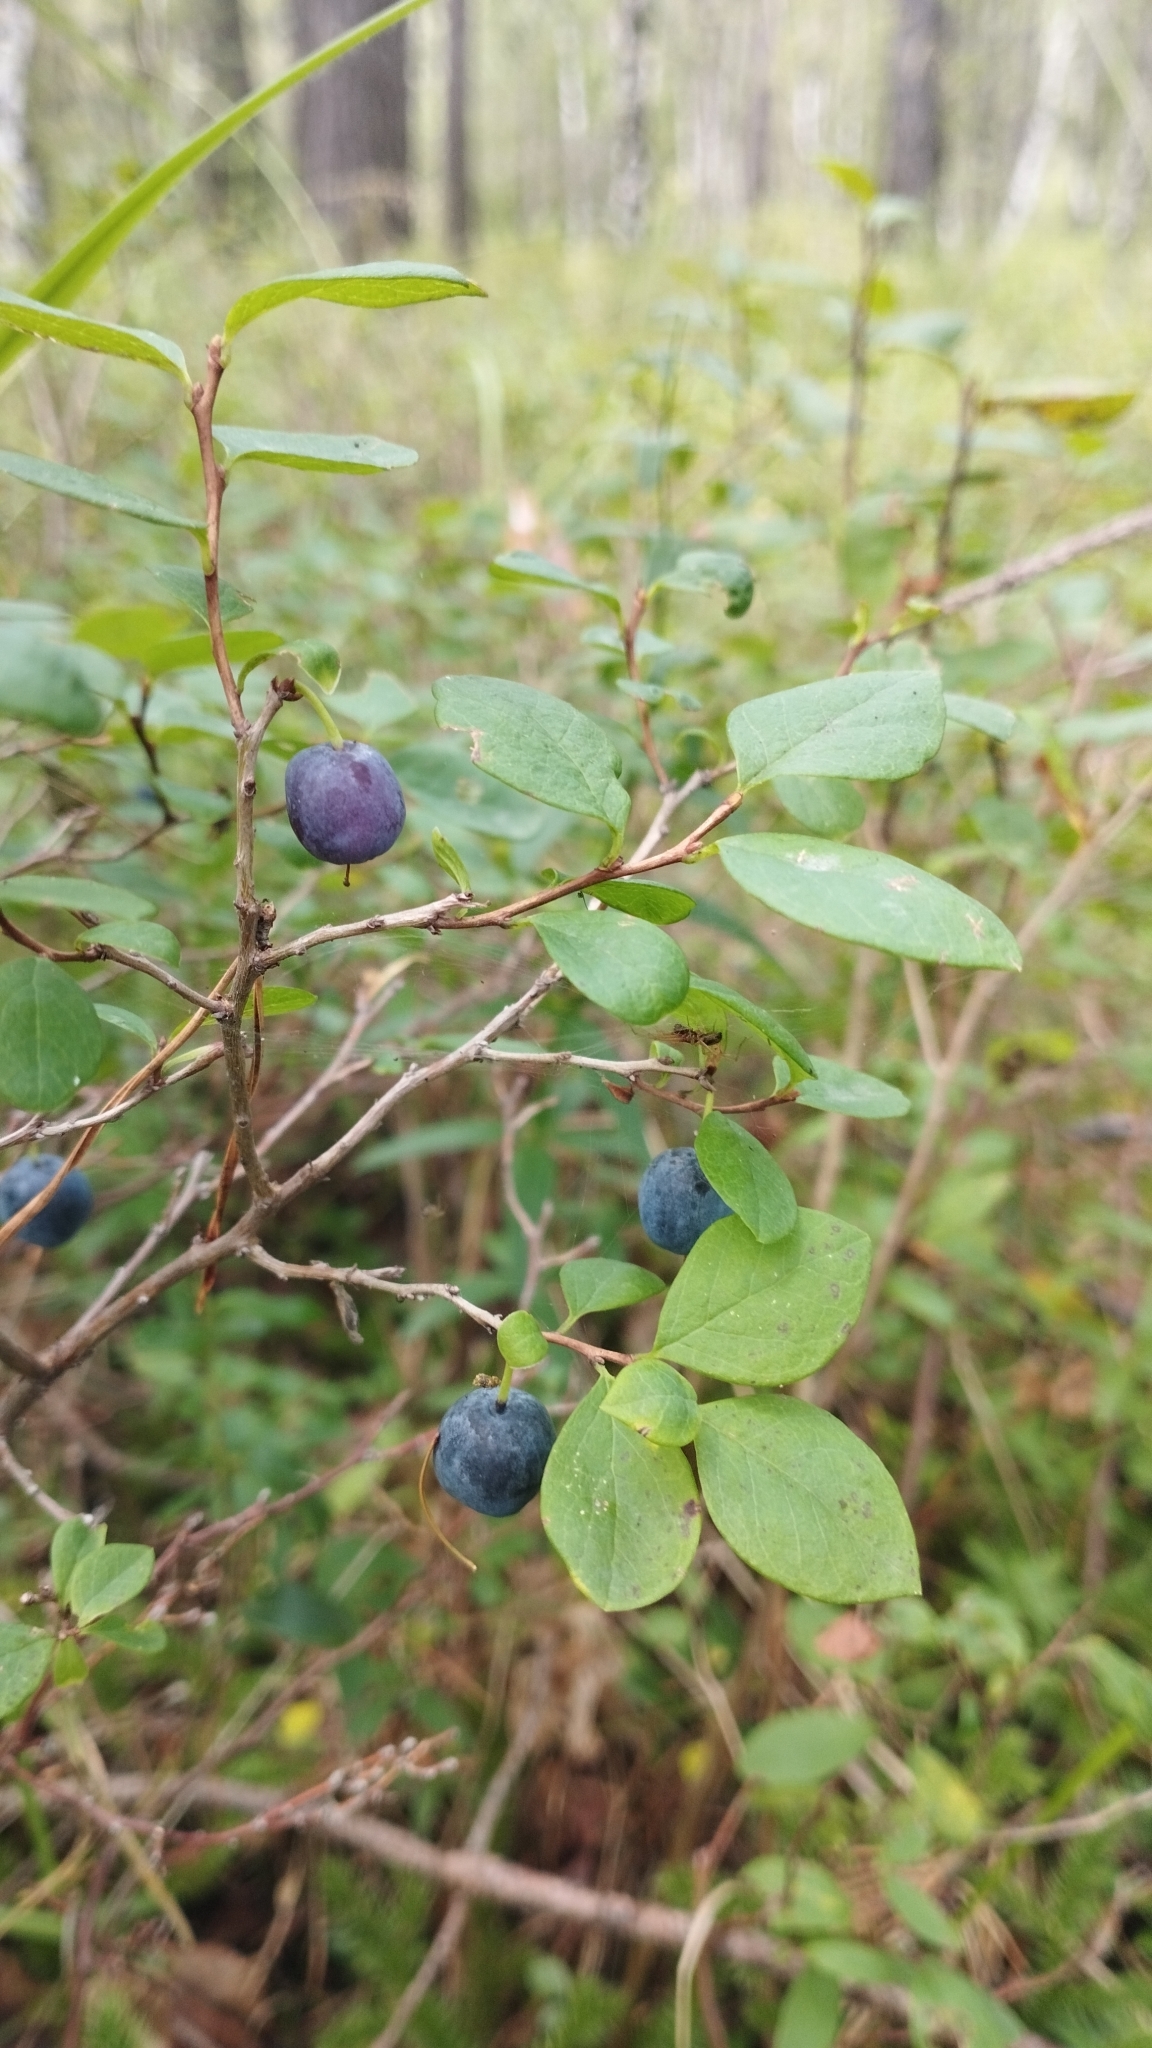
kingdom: Plantae
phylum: Tracheophyta
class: Magnoliopsida
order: Ericales
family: Ericaceae
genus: Vaccinium
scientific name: Vaccinium uliginosum
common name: Bog bilberry
